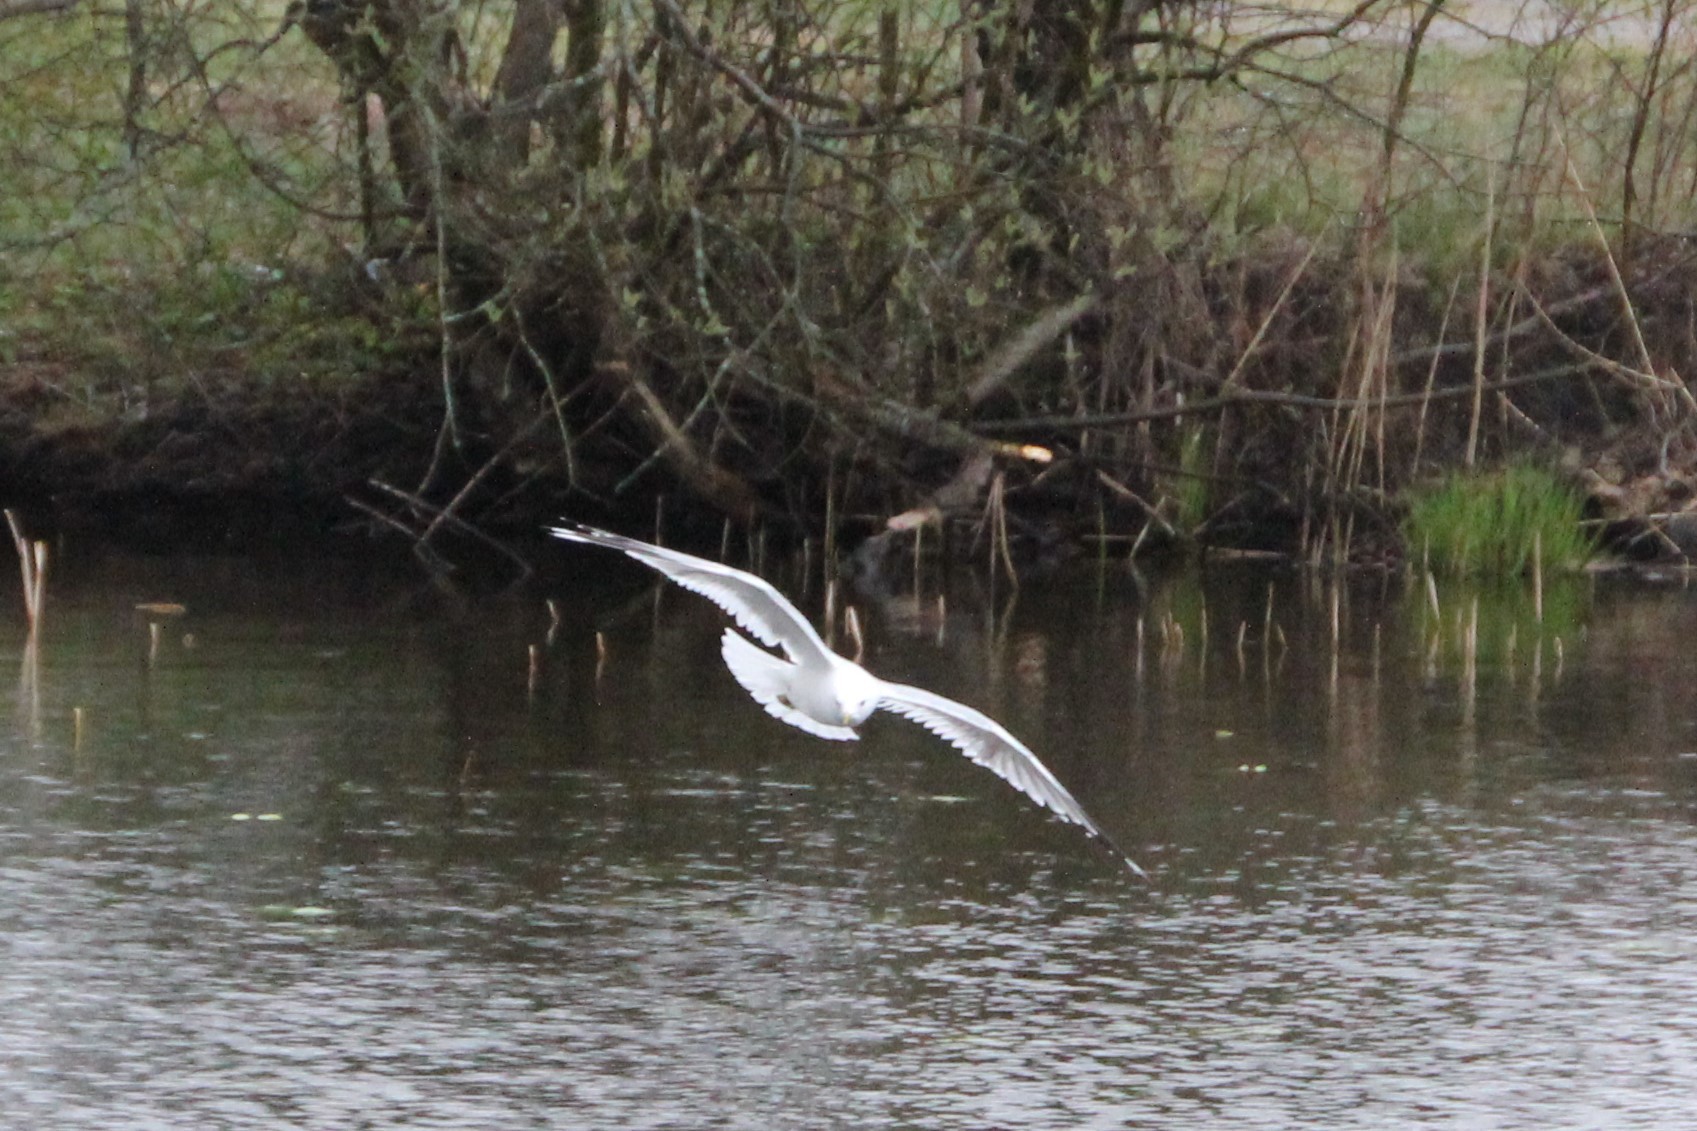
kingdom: Animalia
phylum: Chordata
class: Aves
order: Charadriiformes
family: Laridae
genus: Larus
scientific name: Larus canus
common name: Mew gull
